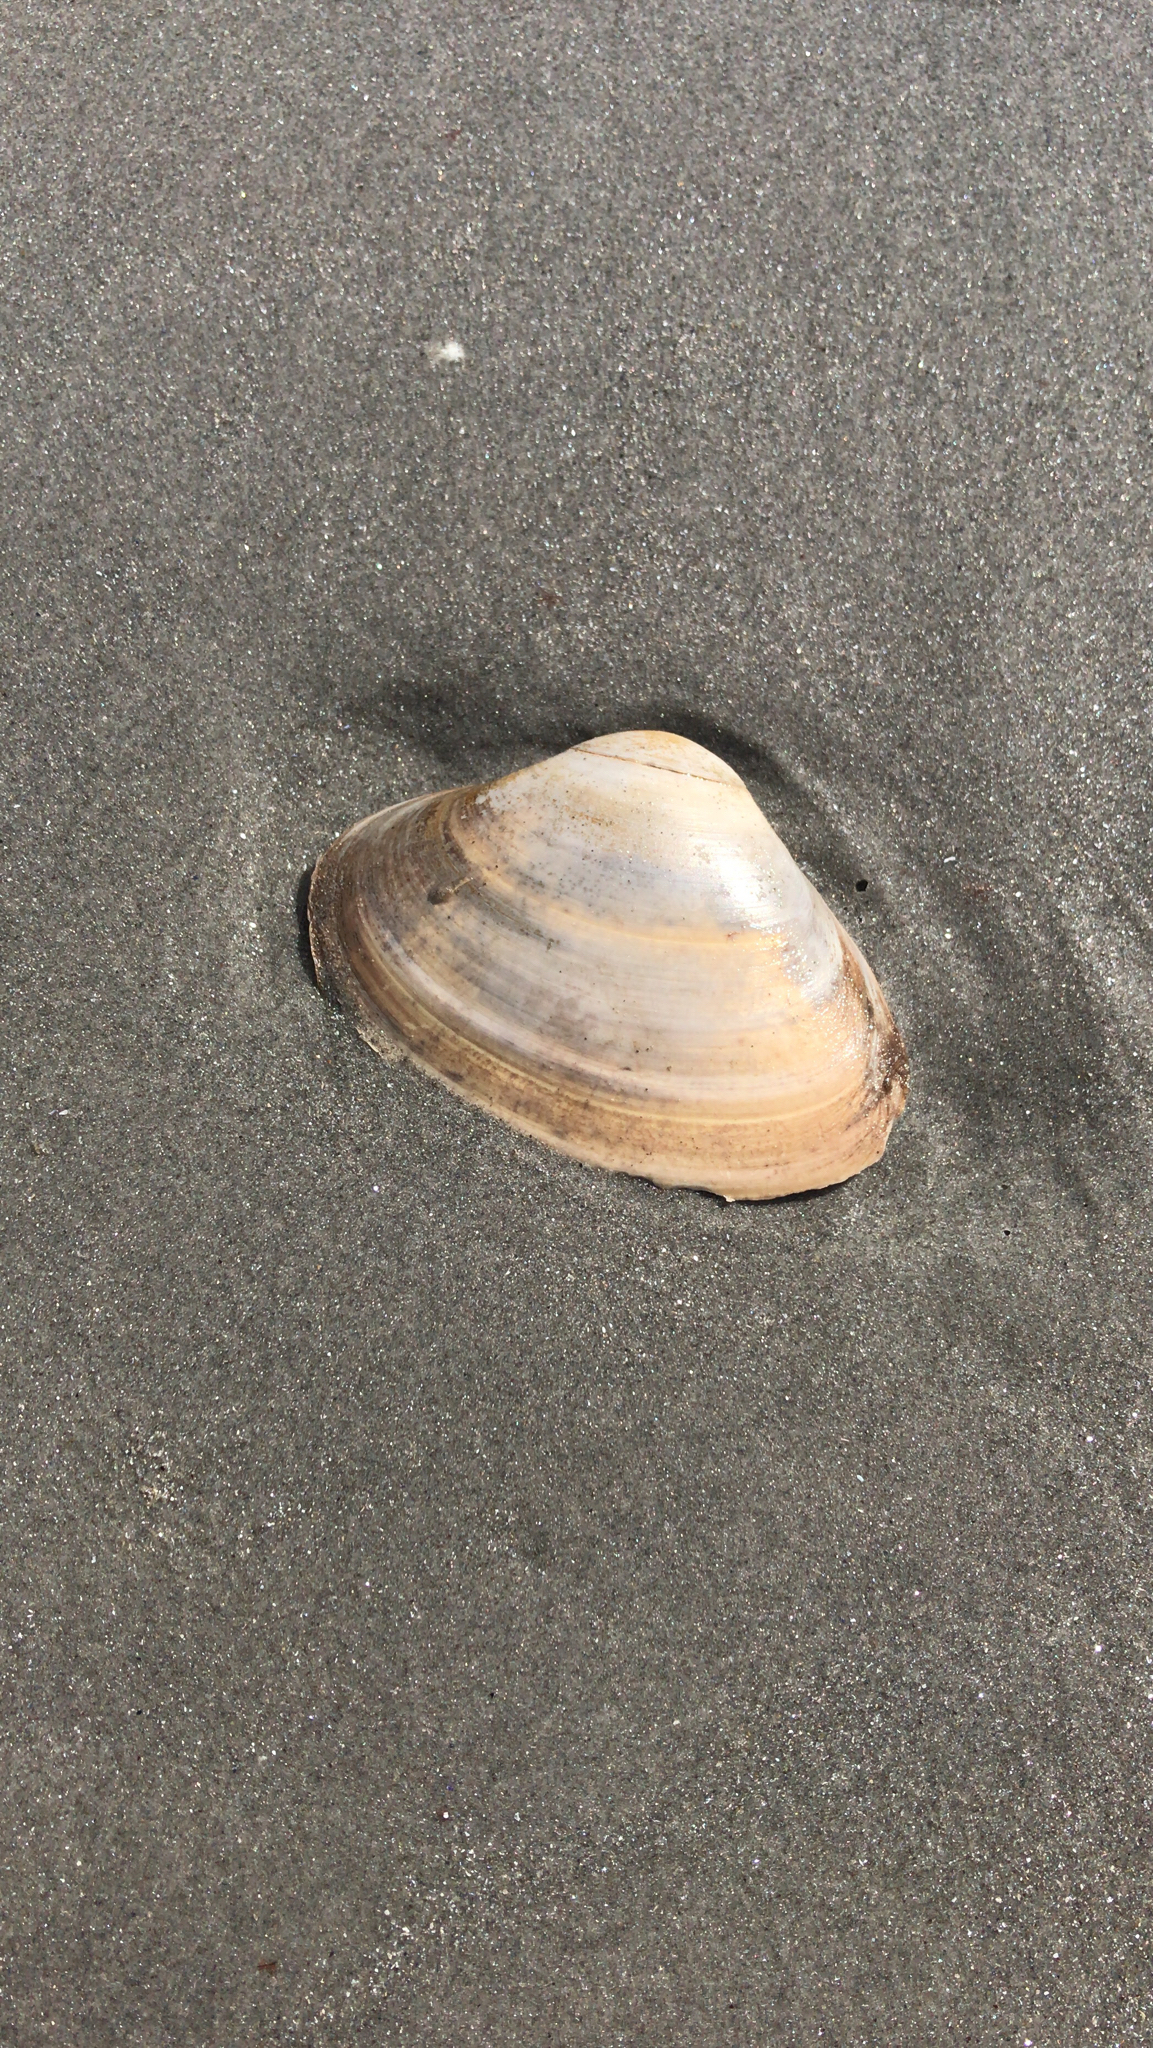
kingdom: Animalia
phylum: Mollusca
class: Bivalvia
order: Venerida
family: Mactridae
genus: Spisula
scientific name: Spisula solidissima
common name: Atlantic surf clam
